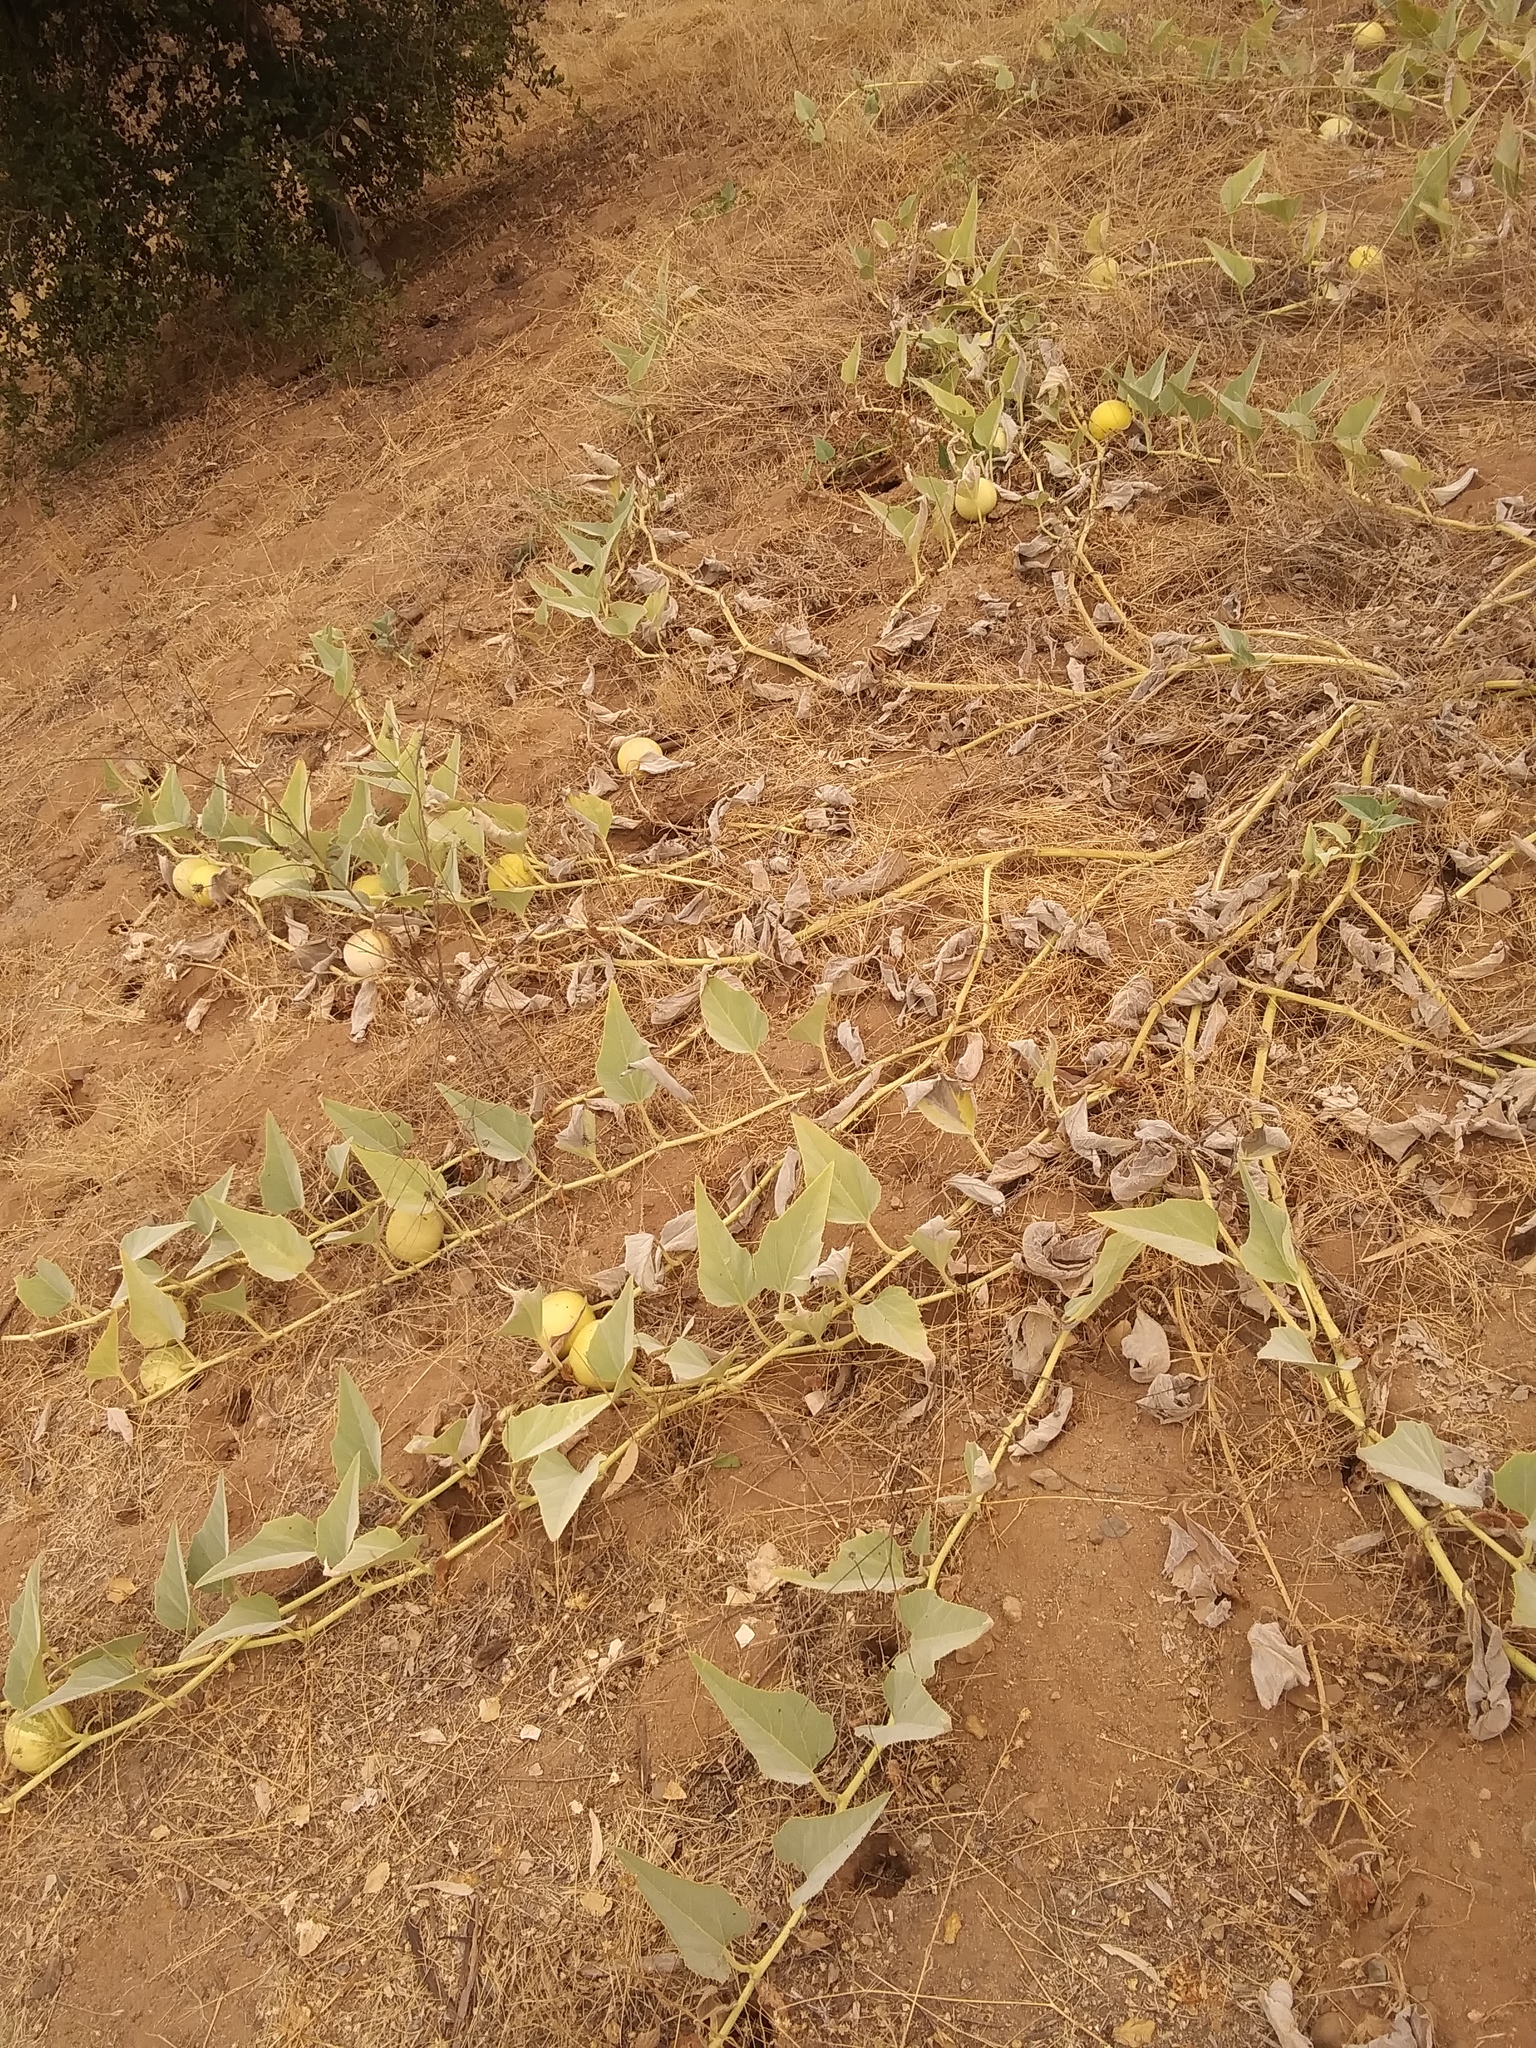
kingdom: Plantae
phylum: Tracheophyta
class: Magnoliopsida
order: Cucurbitales
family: Cucurbitaceae
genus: Cucurbita
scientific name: Cucurbita foetidissima
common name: Buffalo gourd
